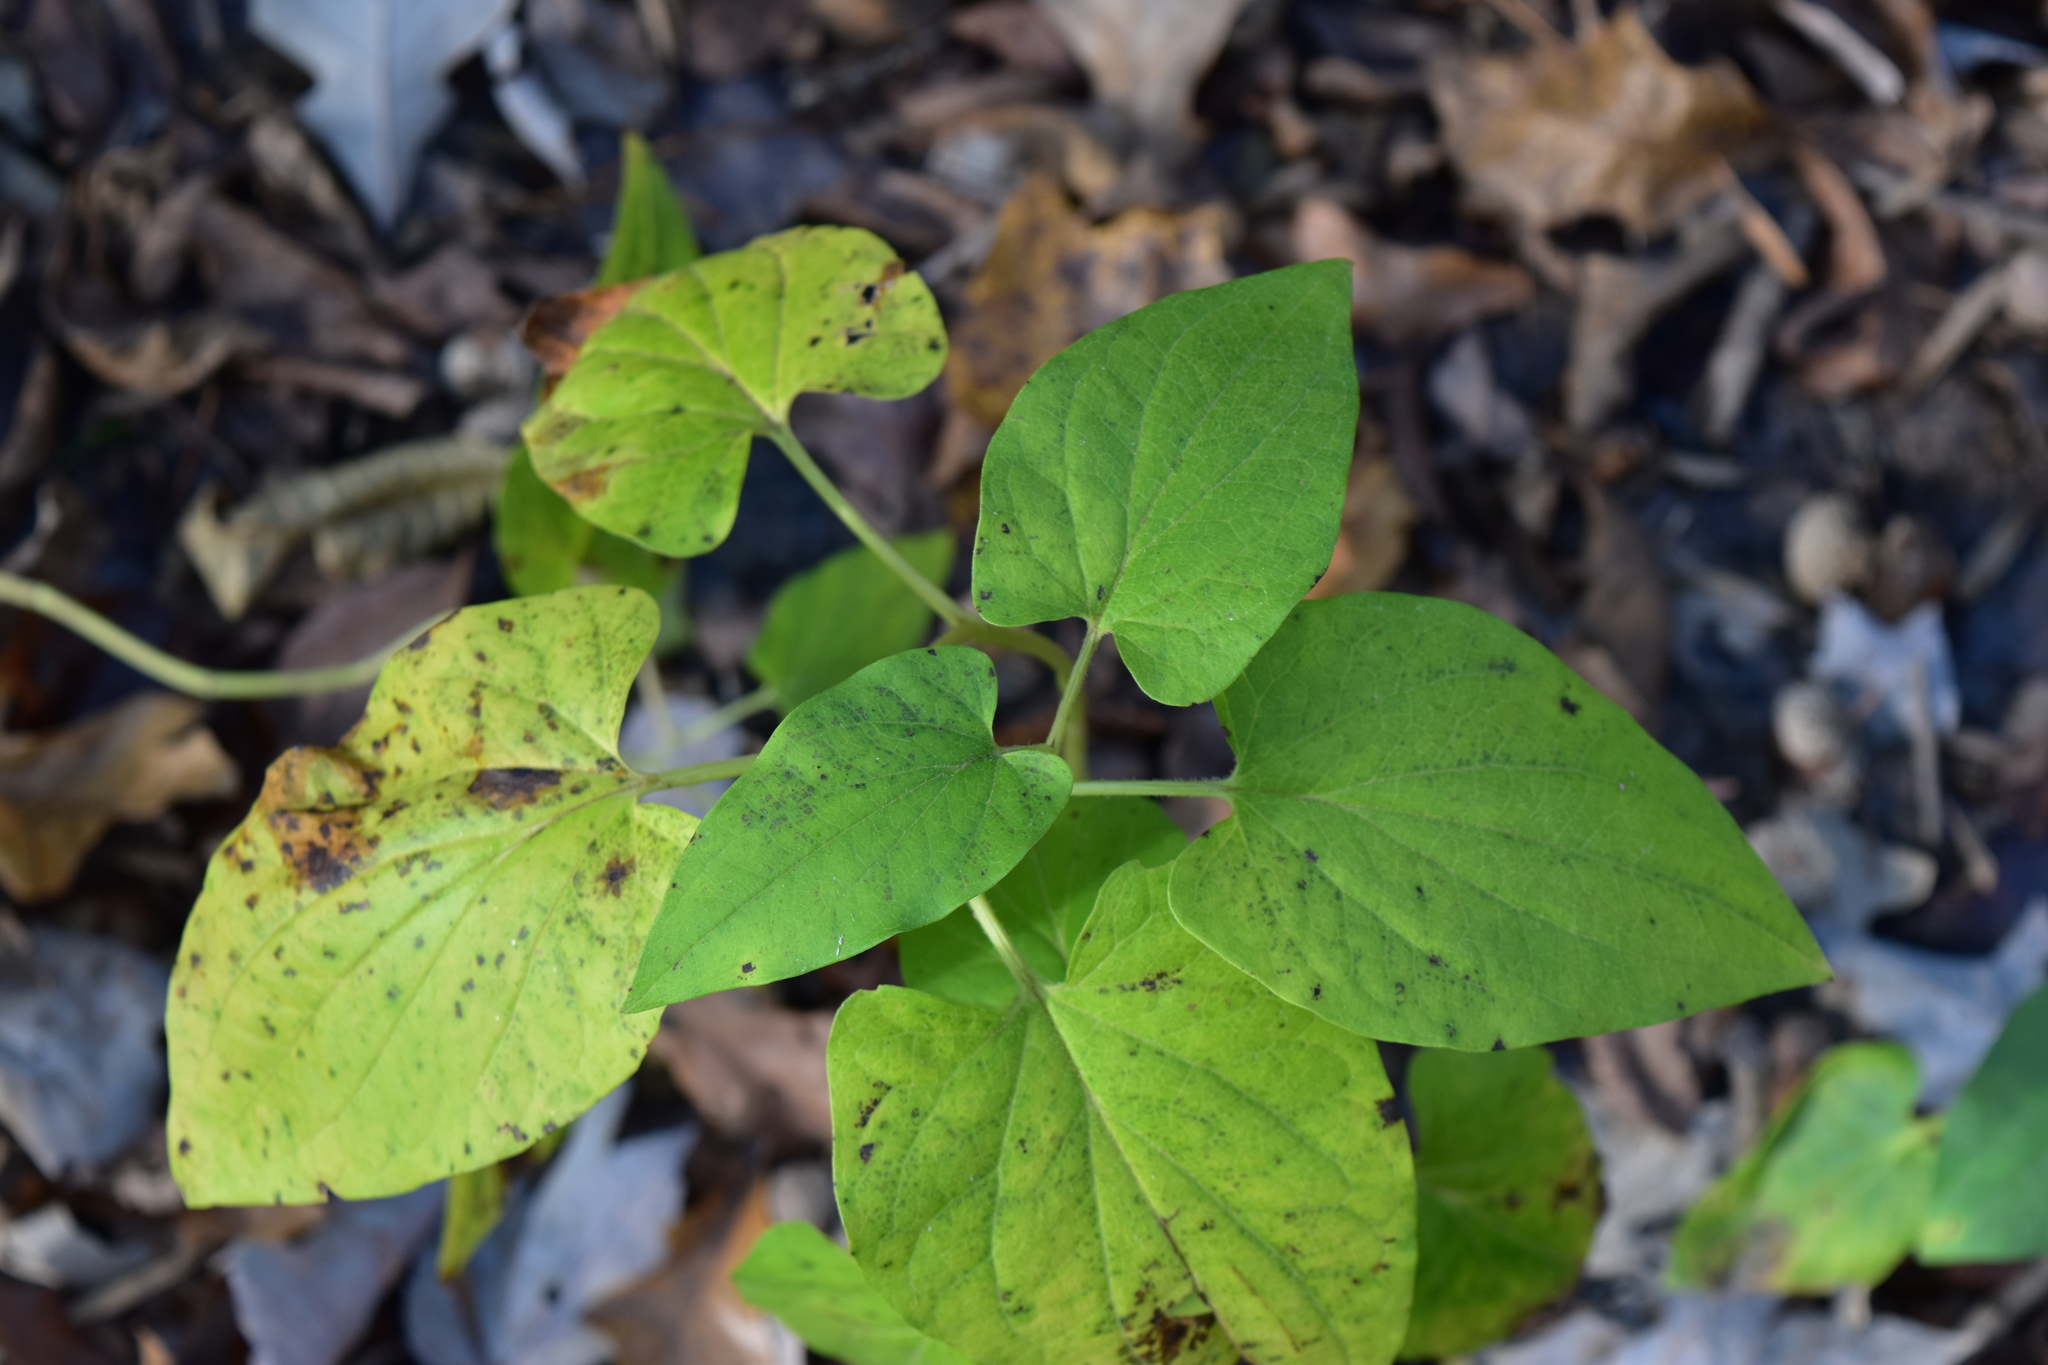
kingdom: Plantae
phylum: Tracheophyta
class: Magnoliopsida
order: Piperales
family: Saururaceae
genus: Saururus
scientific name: Saururus cernuus
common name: Lizard's-tail
